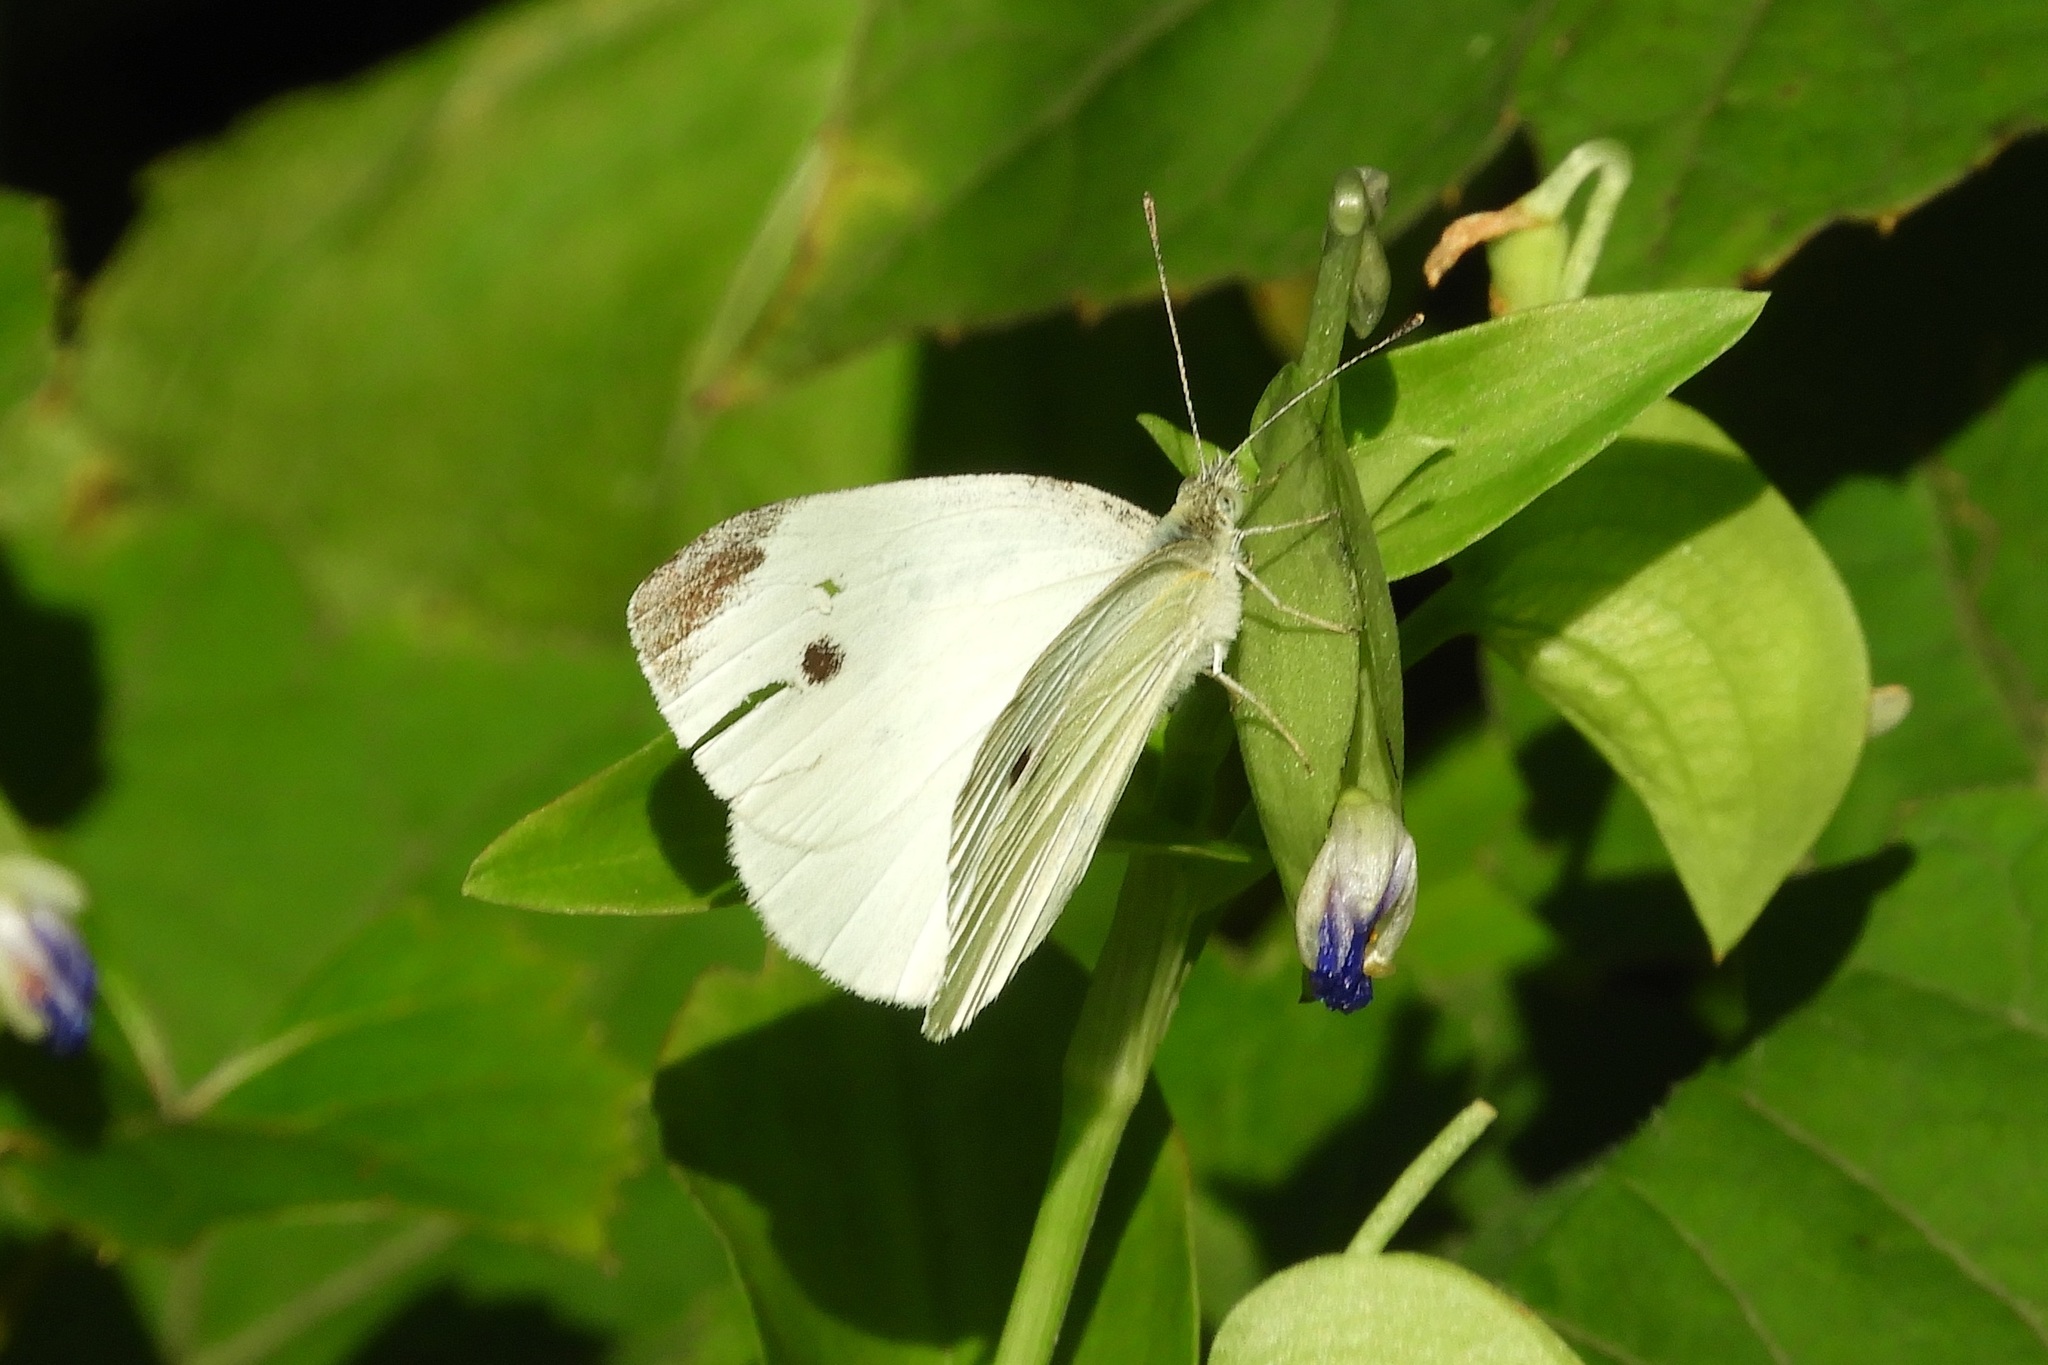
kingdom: Animalia
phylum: Arthropoda
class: Insecta
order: Lepidoptera
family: Pieridae
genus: Pieris
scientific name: Pieris rapae
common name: Small white
